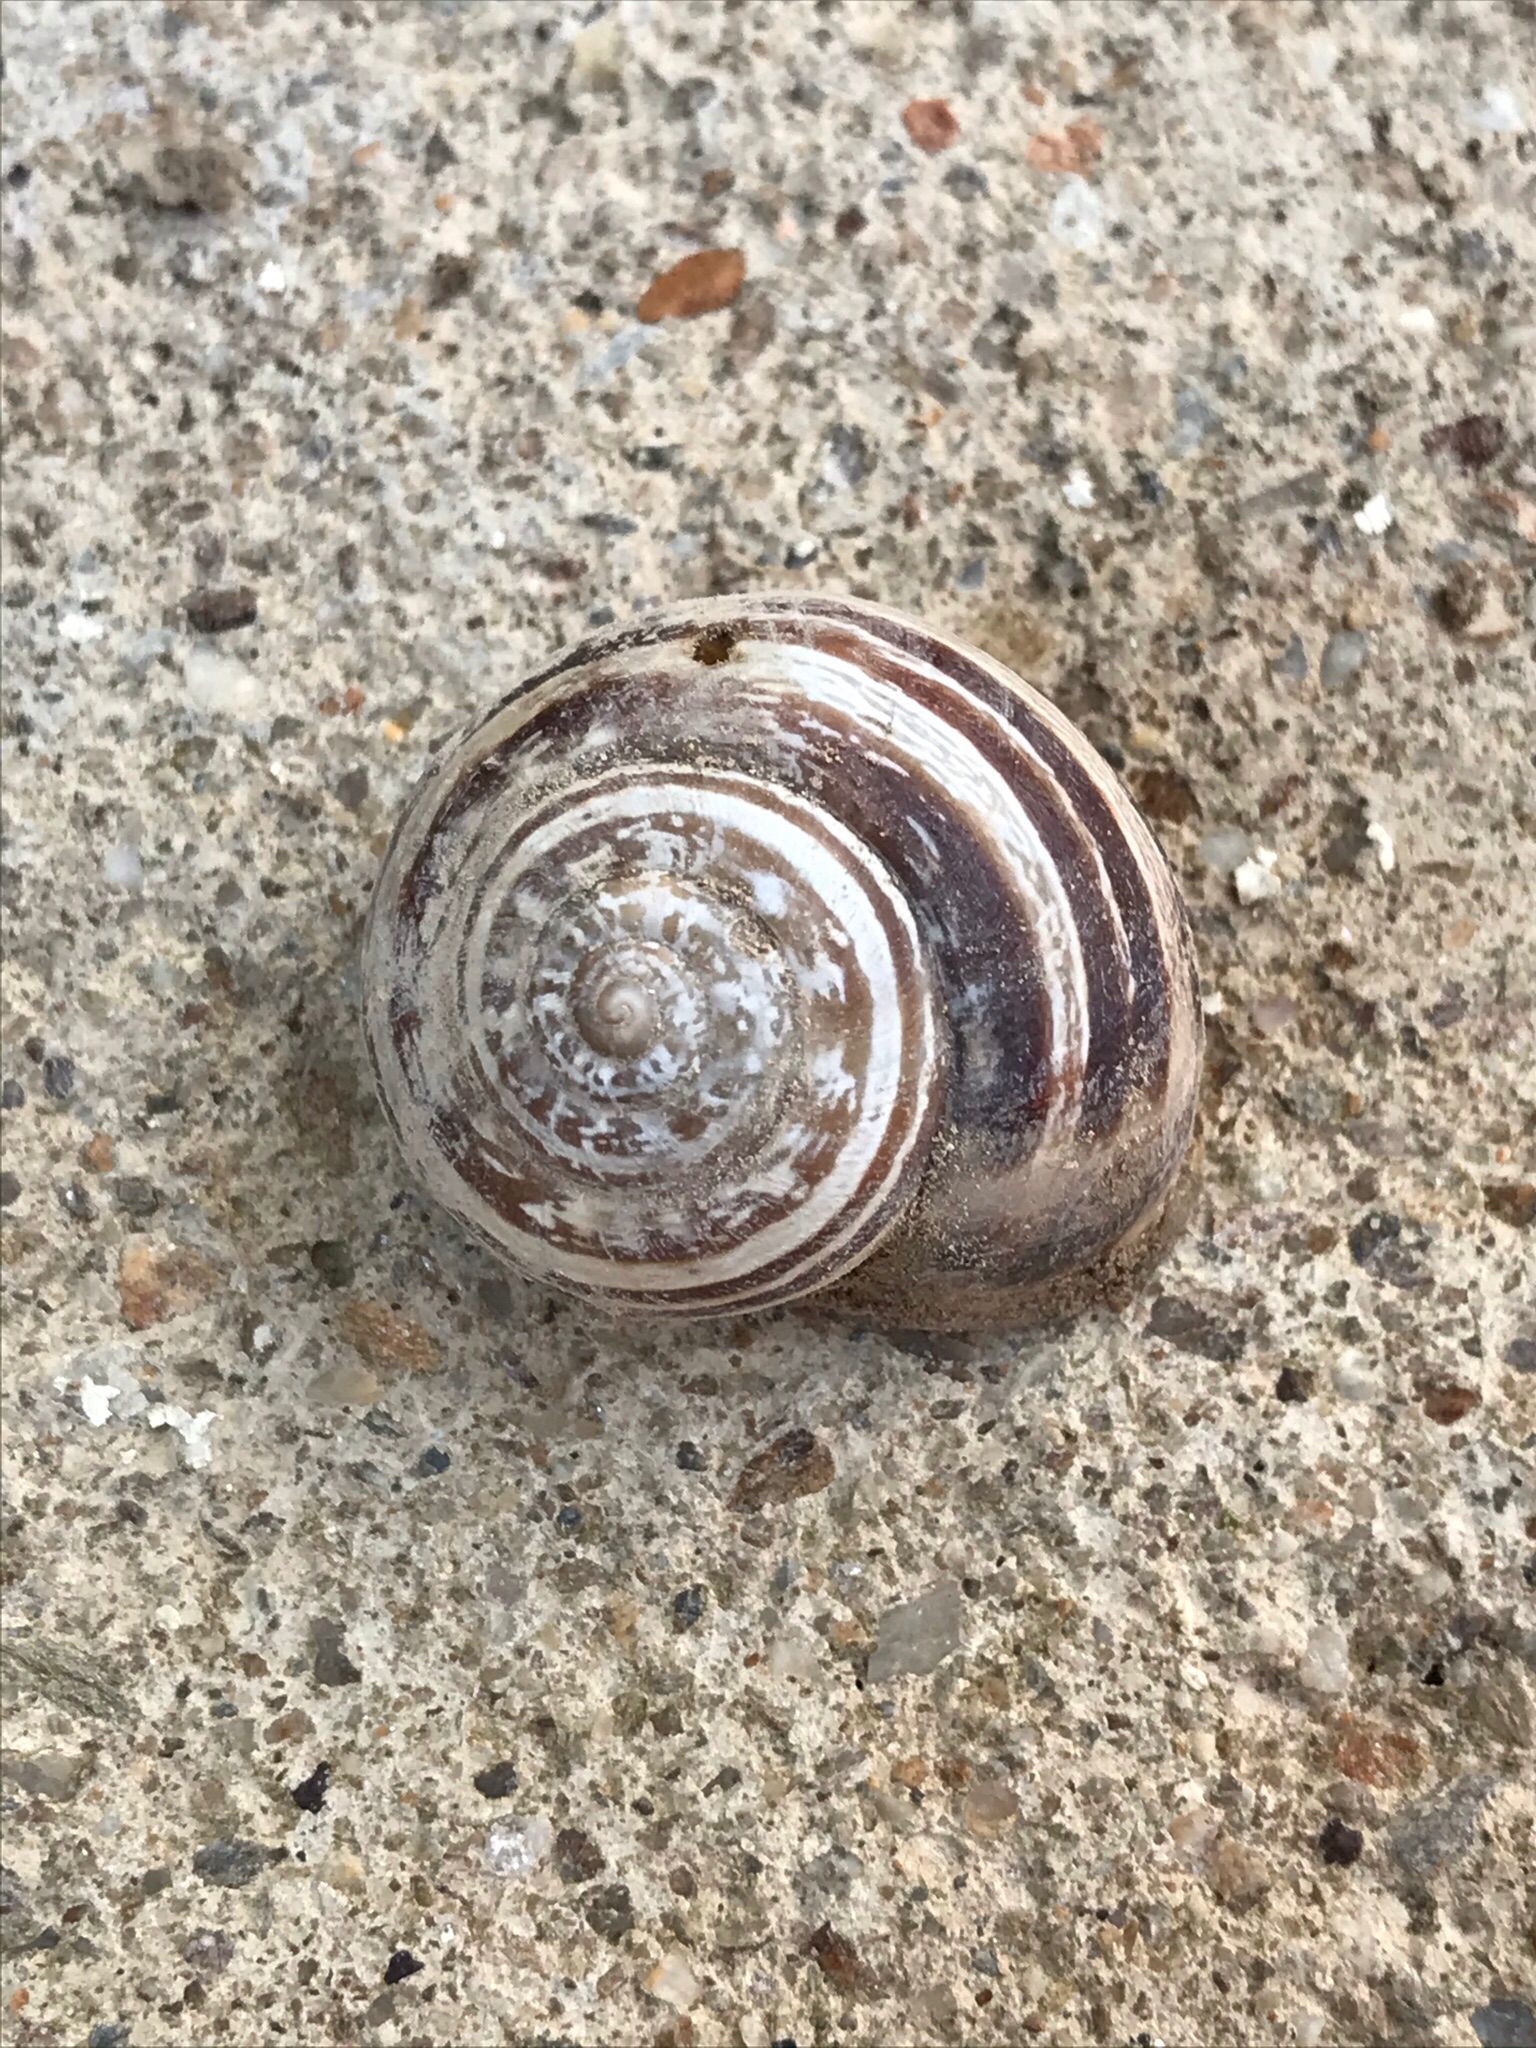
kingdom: Animalia
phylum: Mollusca
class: Gastropoda
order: Stylommatophora
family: Helicidae
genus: Eobania
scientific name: Eobania vermiculata
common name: Chocolateband snail
